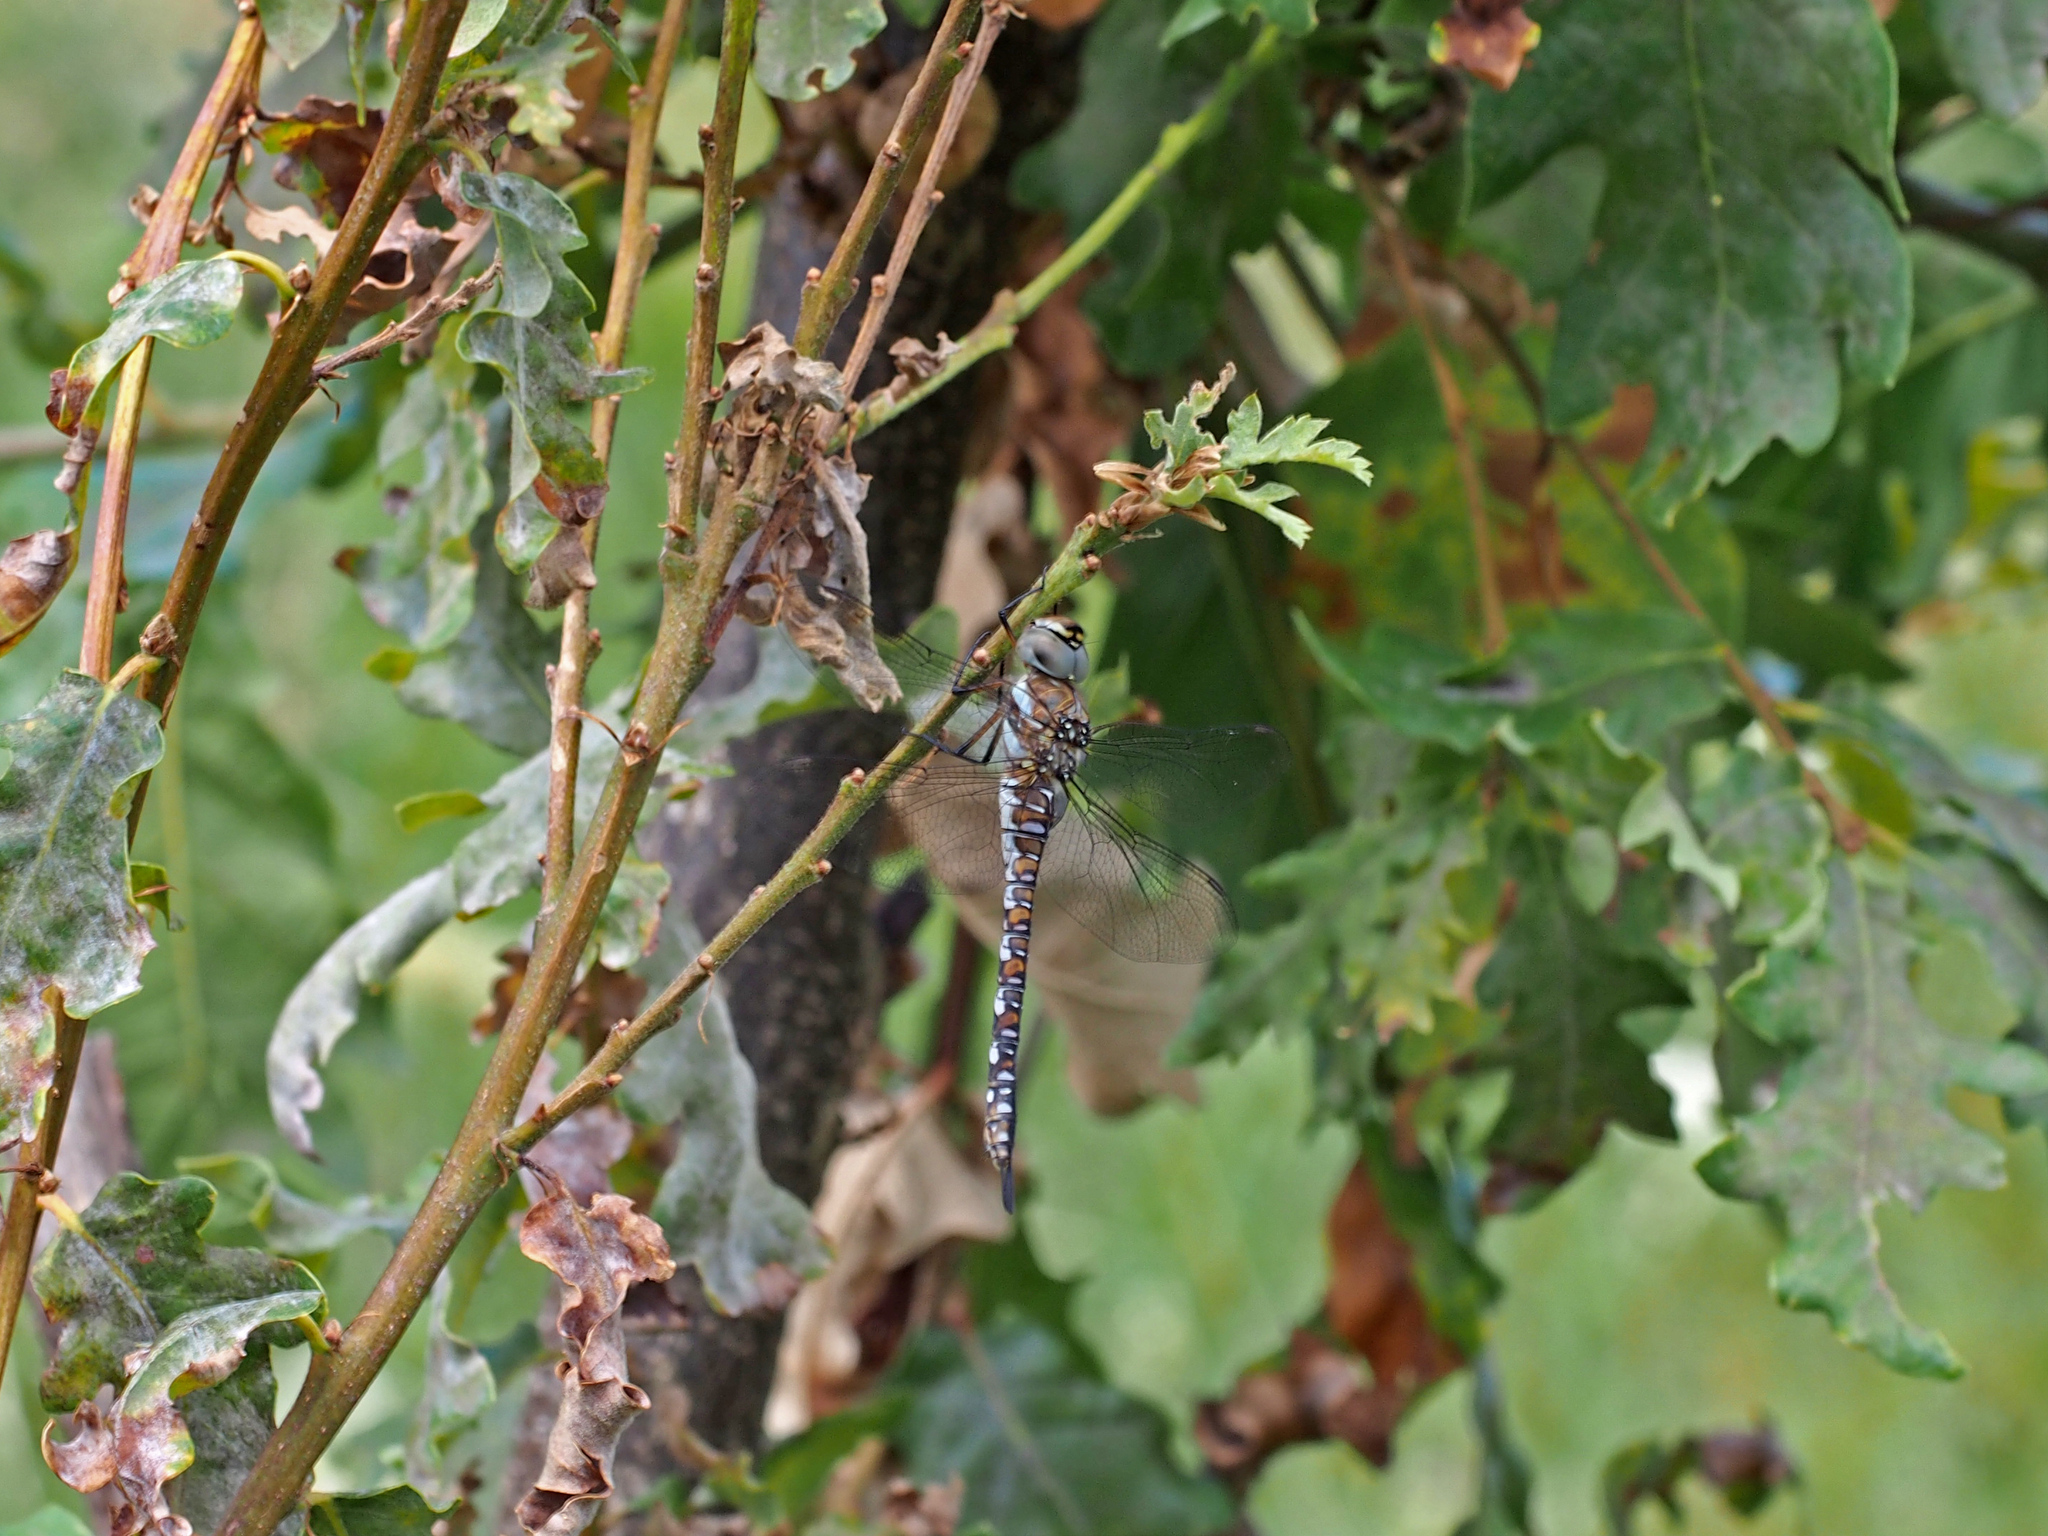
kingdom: Animalia
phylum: Arthropoda
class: Insecta
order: Odonata
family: Aeshnidae
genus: Aeshna
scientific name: Aeshna mixta
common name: Migrant hawker
